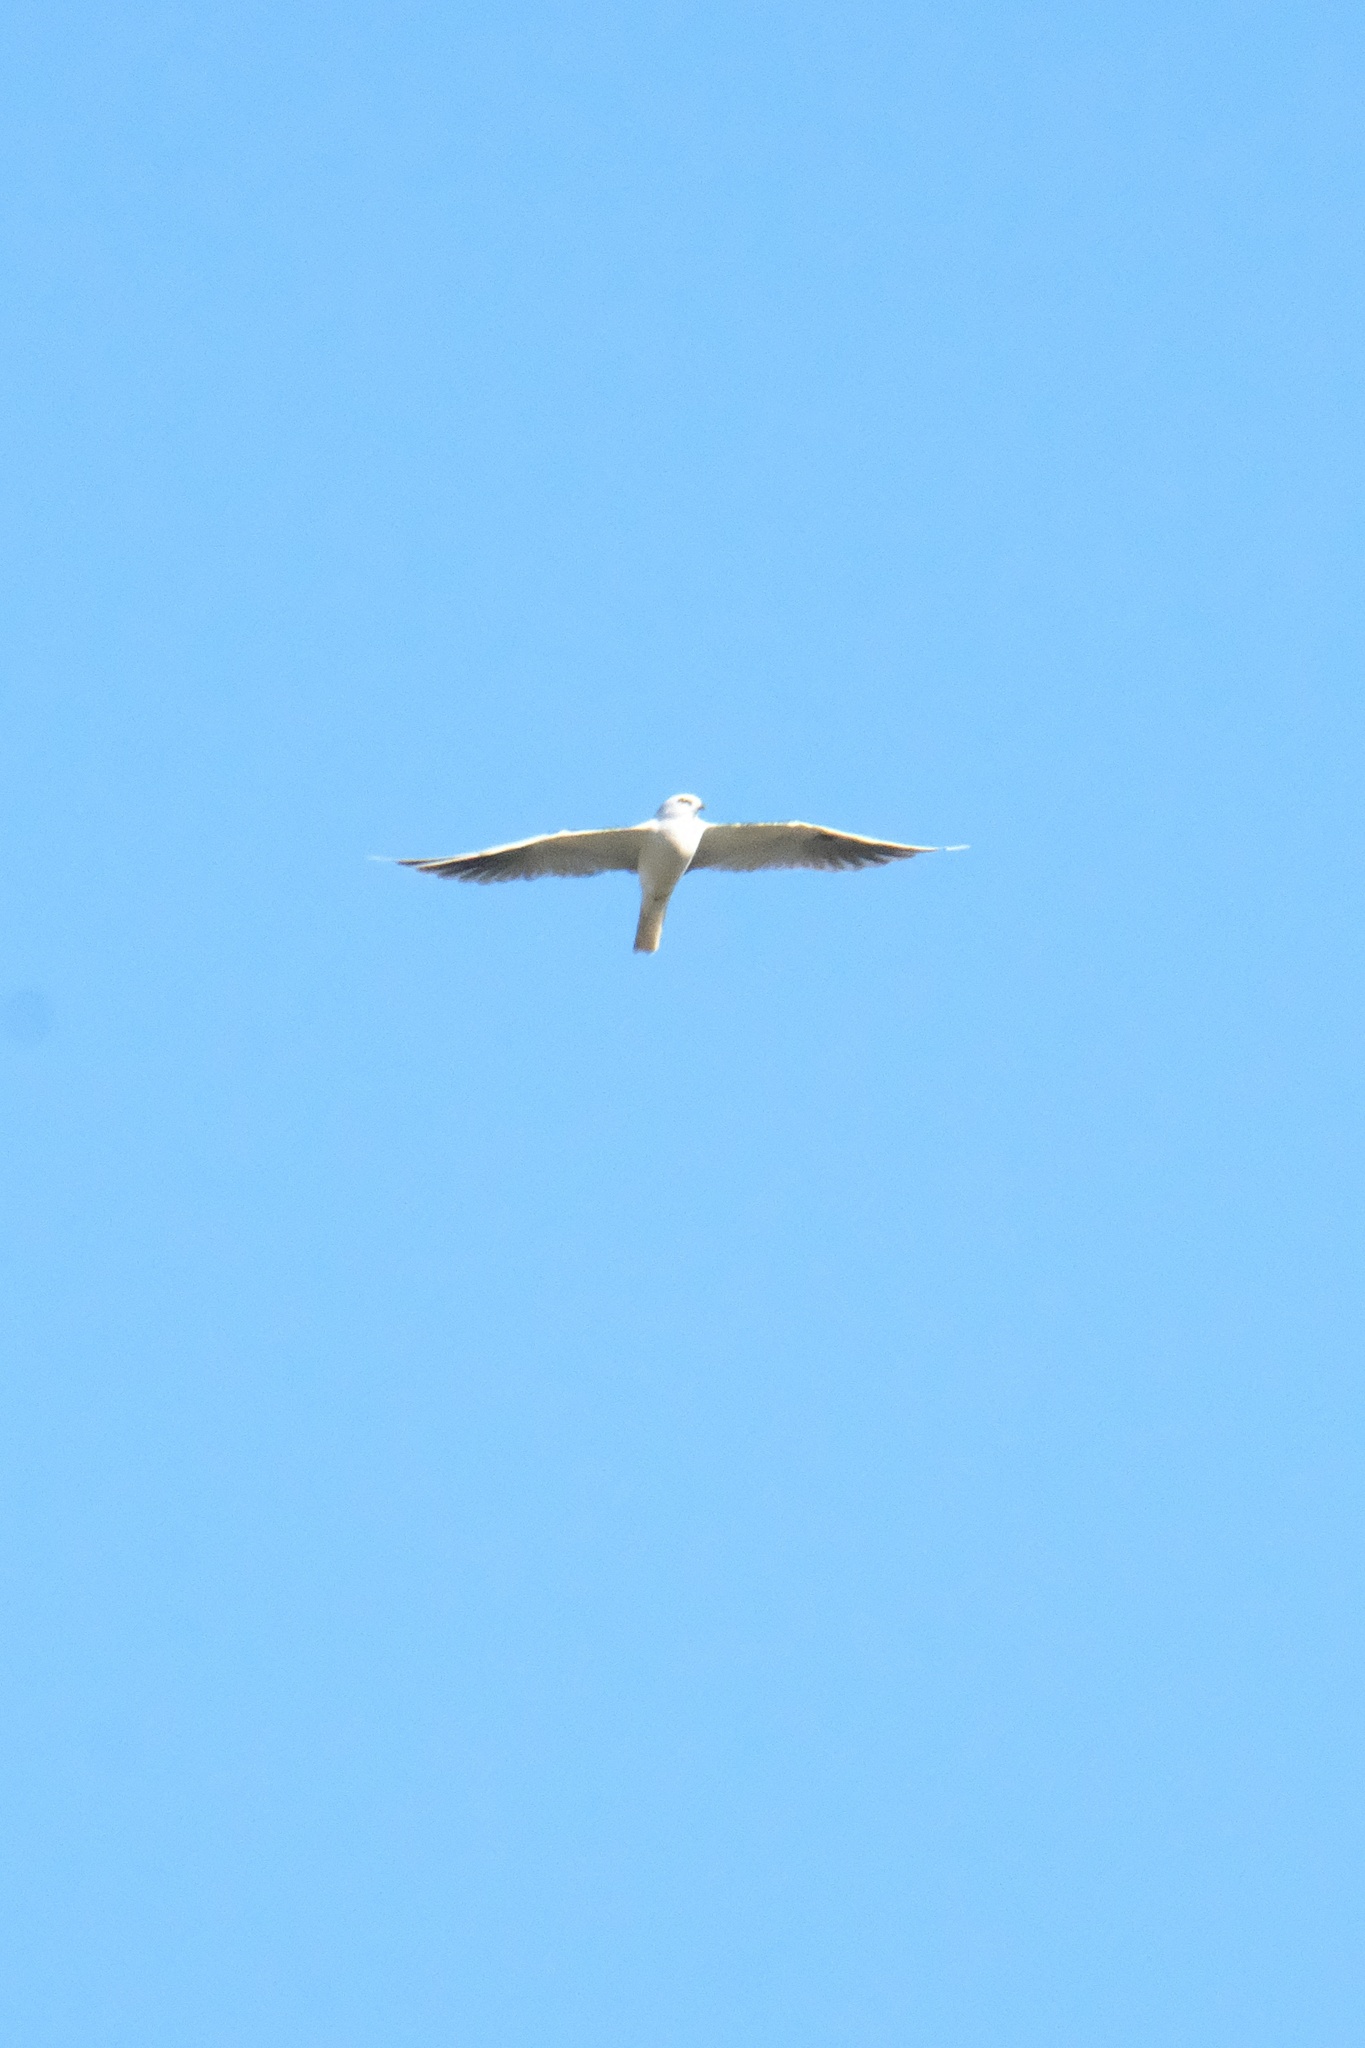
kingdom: Animalia
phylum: Chordata
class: Aves
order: Accipitriformes
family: Accipitridae
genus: Elanus
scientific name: Elanus leucurus
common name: White-tailed kite
